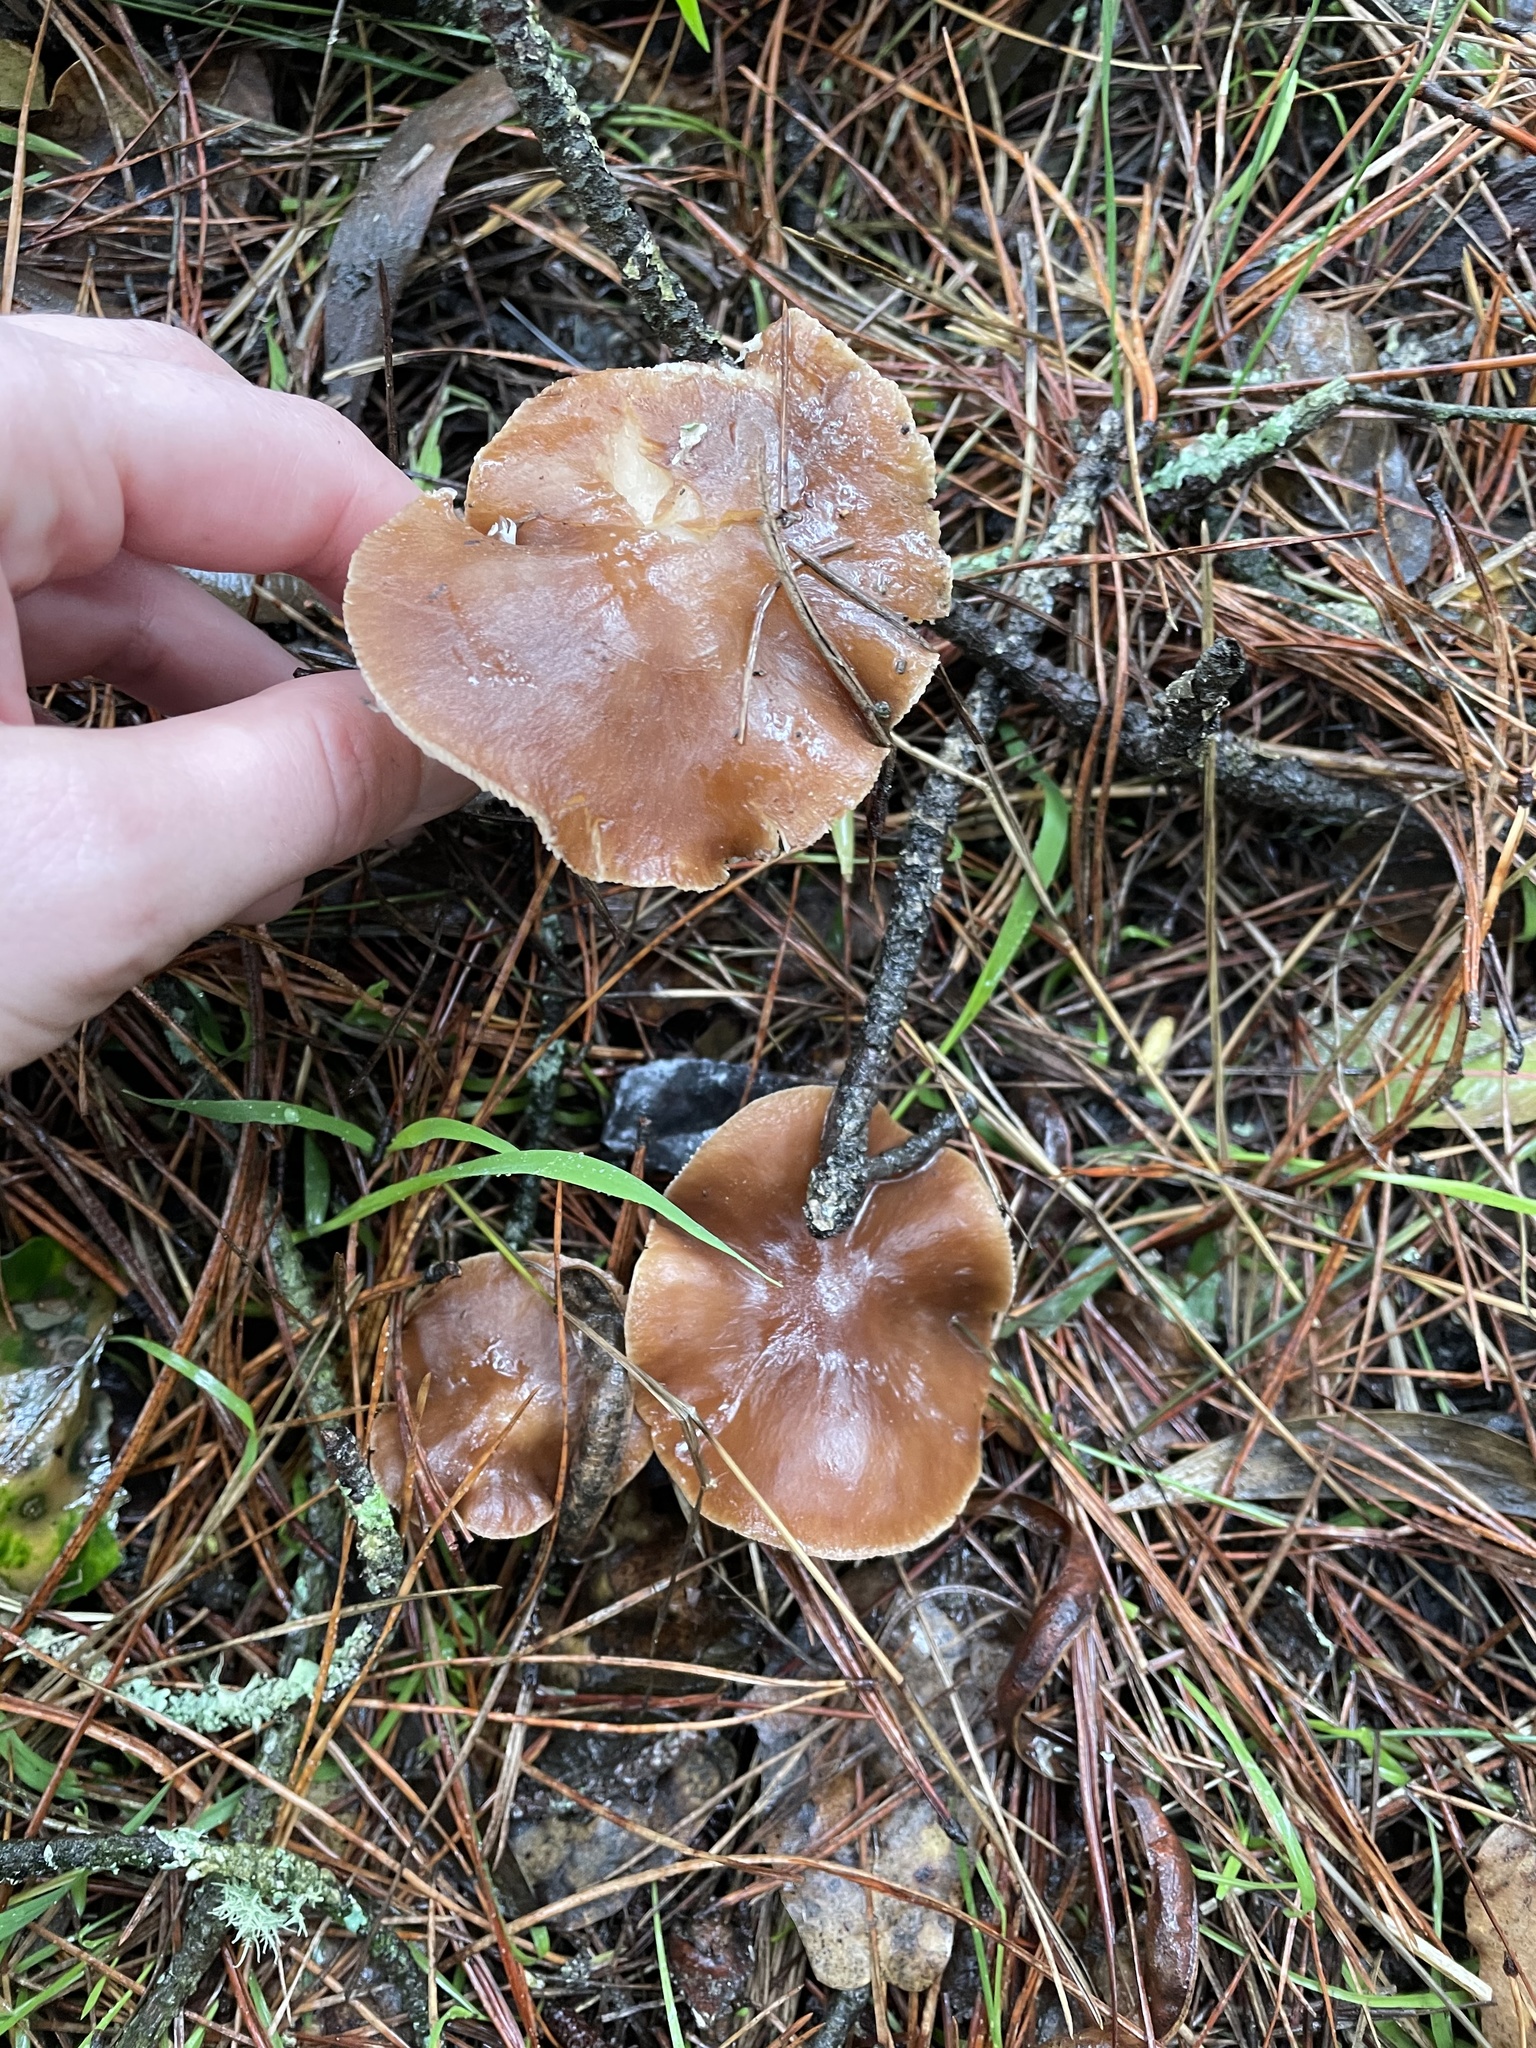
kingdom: Fungi
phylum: Basidiomycota
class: Agaricomycetes
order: Agaricales
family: Omphalotaceae
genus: Rhodocollybia
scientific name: Rhodocollybia butyracea
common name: Butter cap
